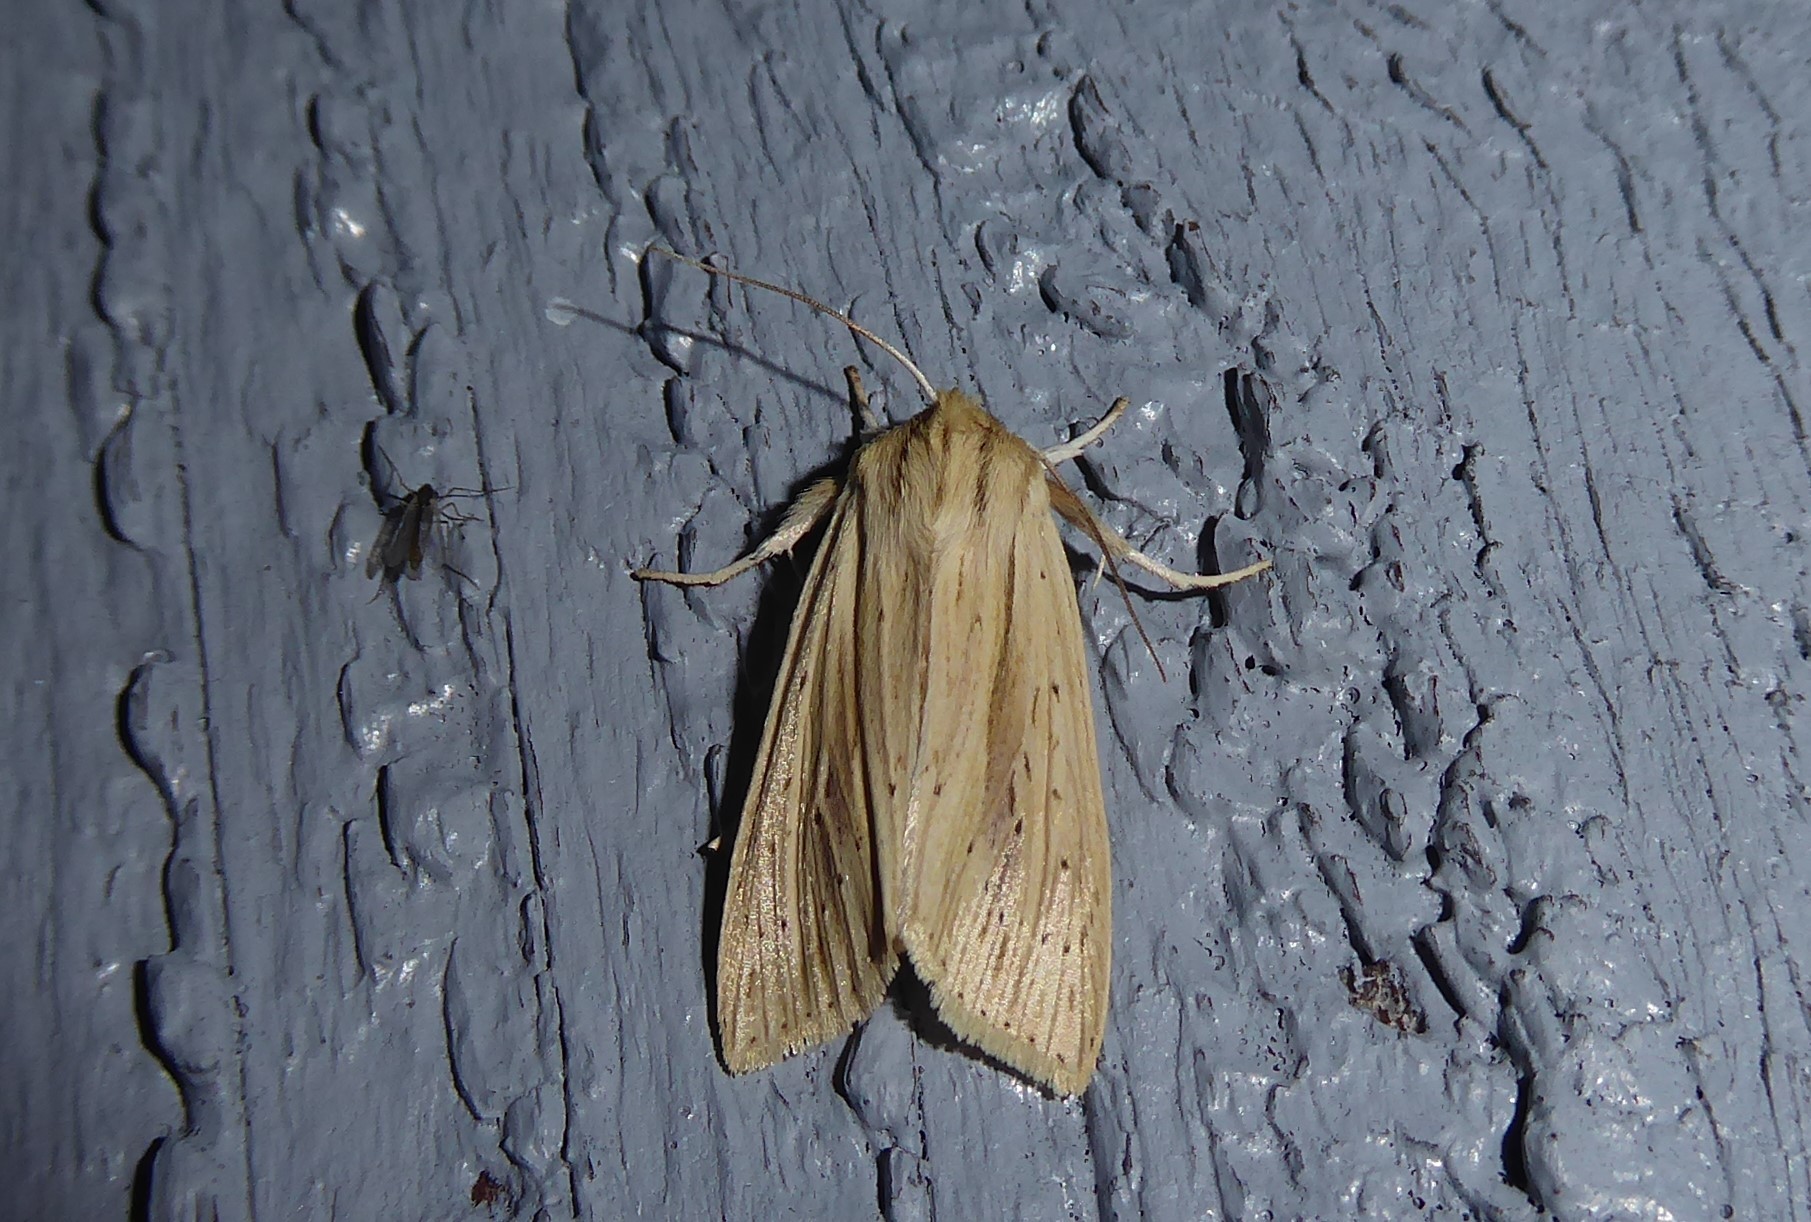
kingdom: Animalia
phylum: Arthropoda
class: Insecta
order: Lepidoptera
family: Noctuidae
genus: Ichneutica
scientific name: Ichneutica semivittata
